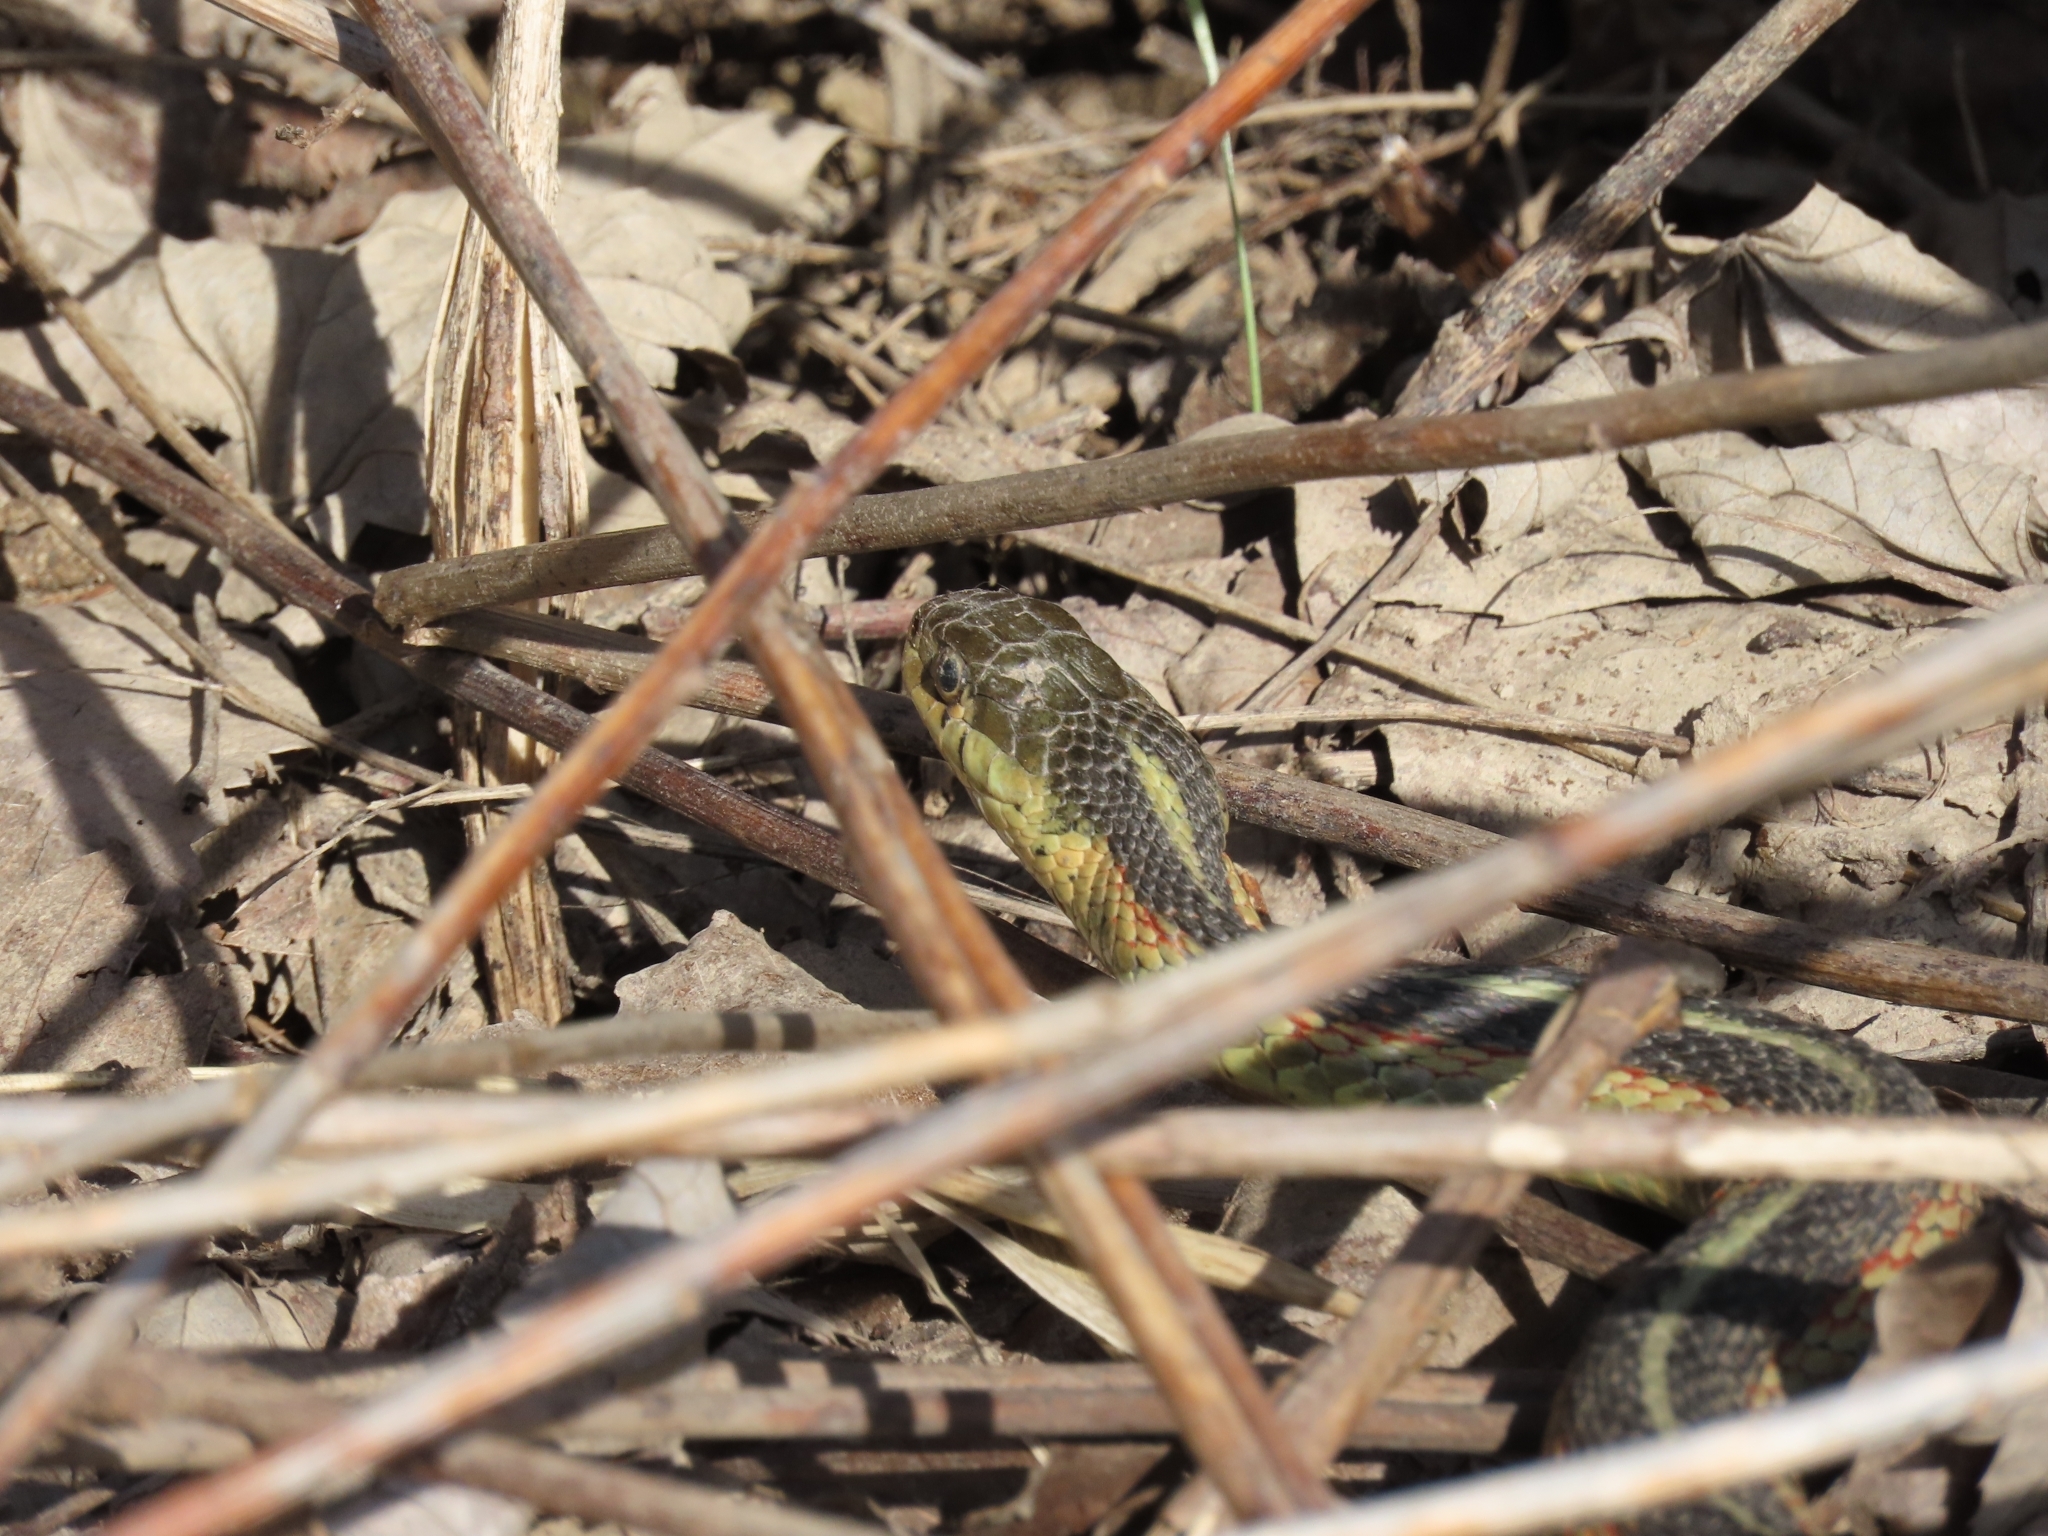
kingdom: Animalia
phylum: Chordata
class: Squamata
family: Colubridae
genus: Thamnophis
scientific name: Thamnophis sirtalis
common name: Common garter snake
